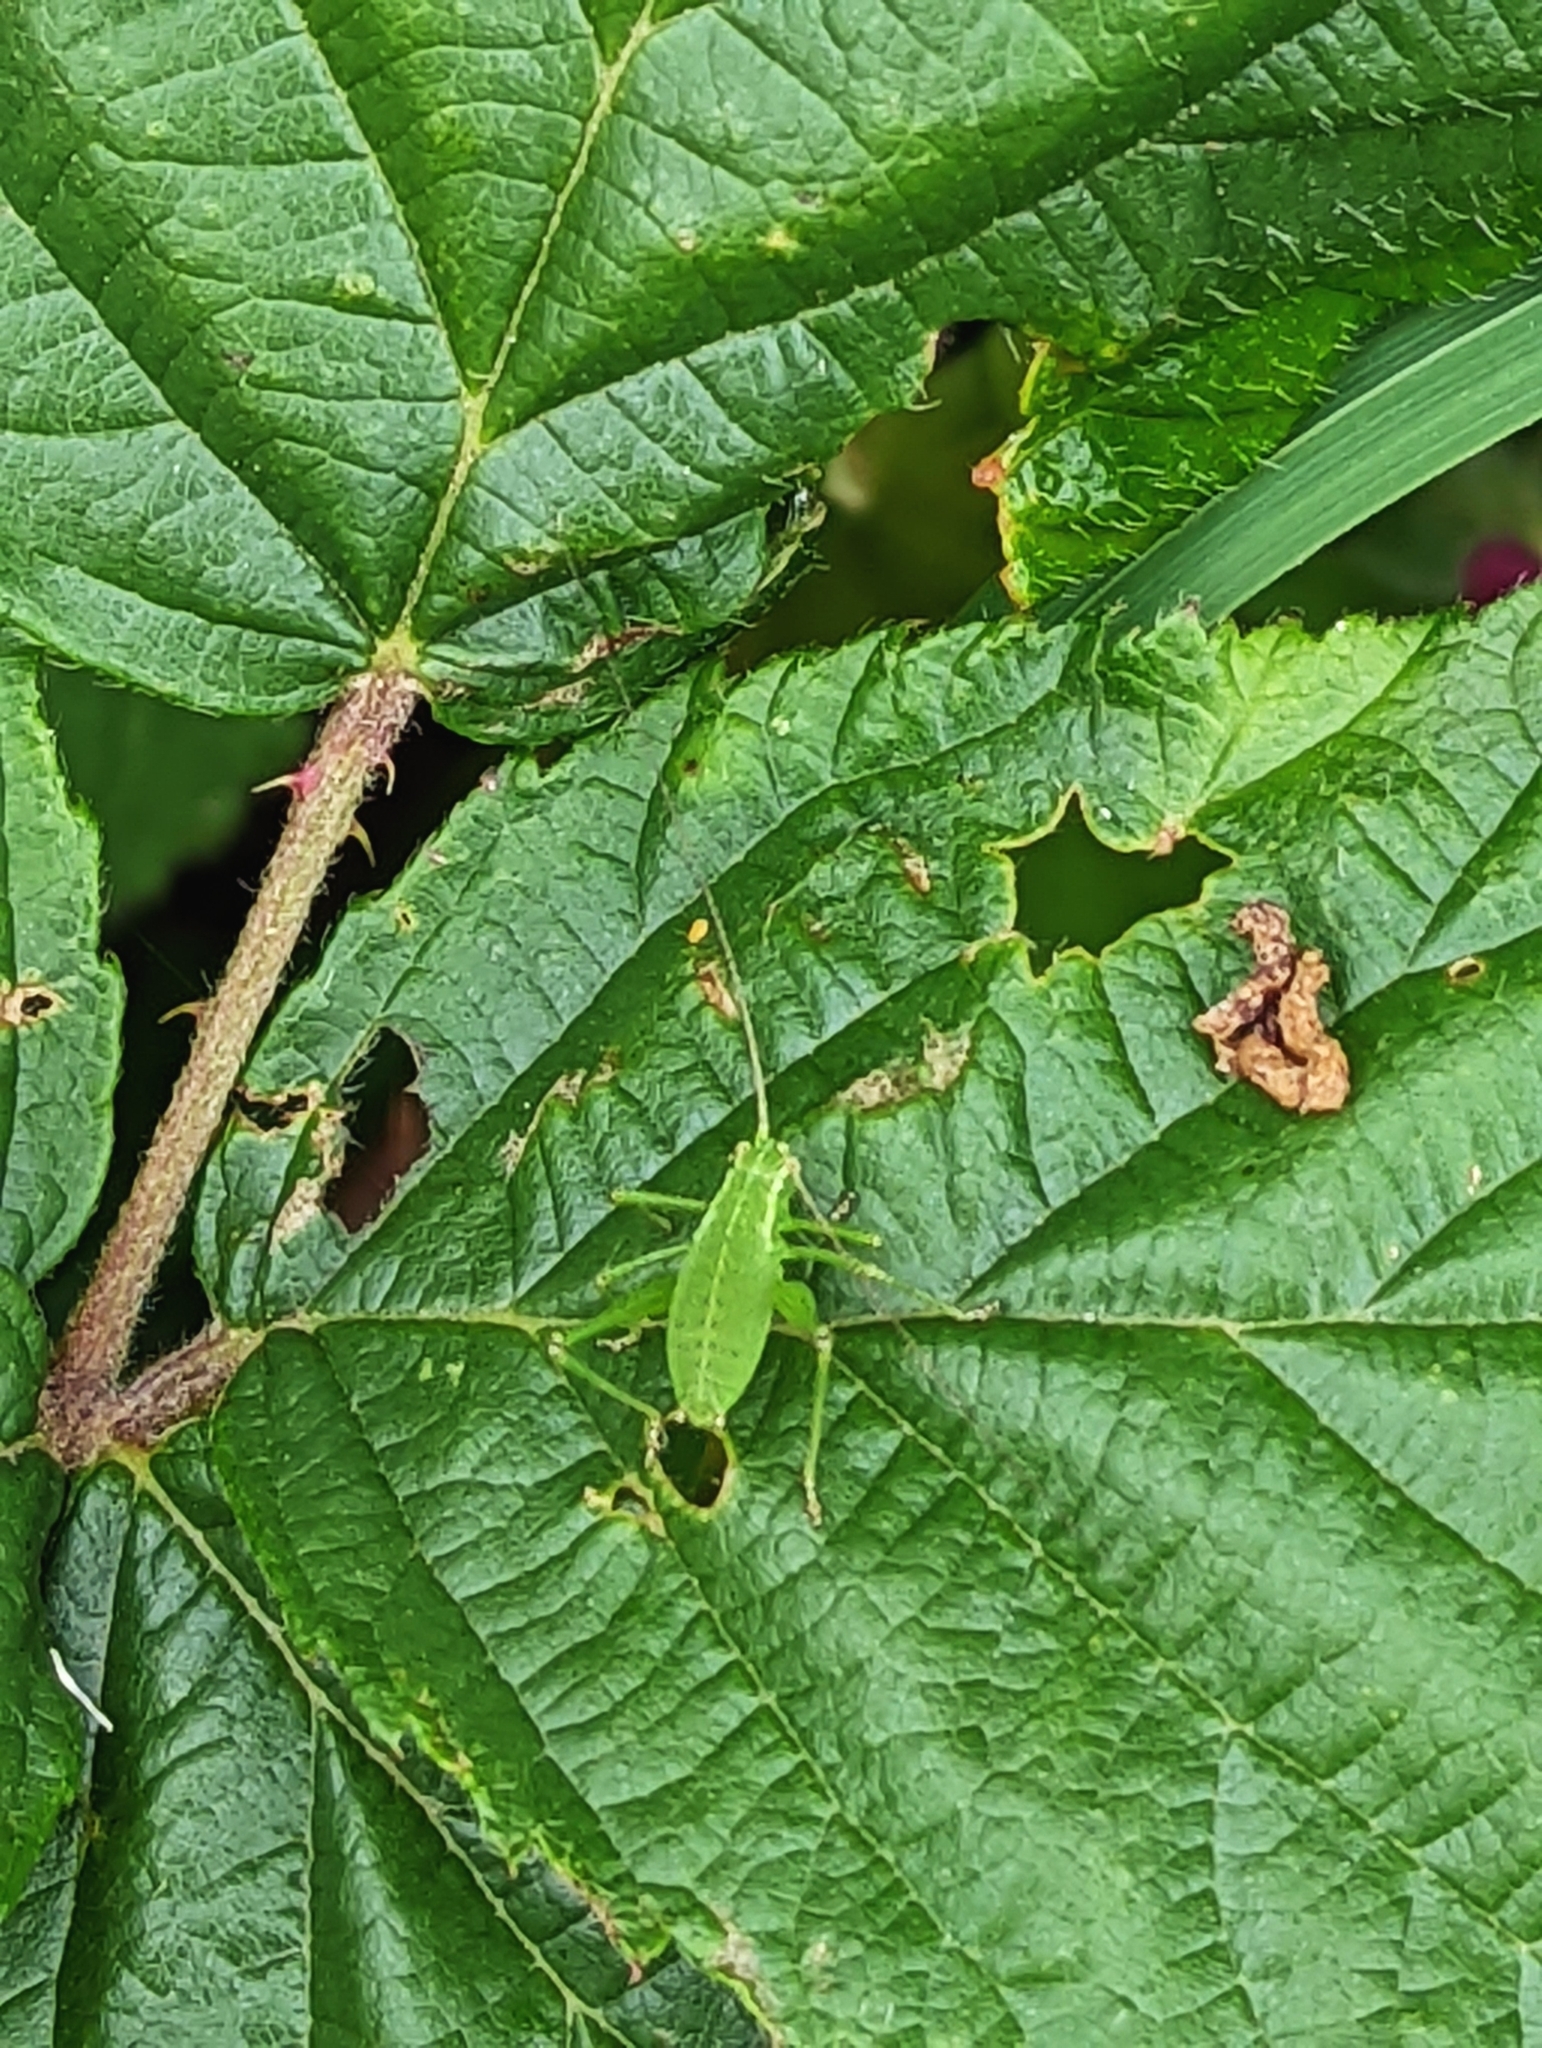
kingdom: Animalia
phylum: Arthropoda
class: Insecta
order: Orthoptera
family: Tettigoniidae
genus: Leptophyes
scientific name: Leptophyes punctatissima
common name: Speckled bush-cricket
